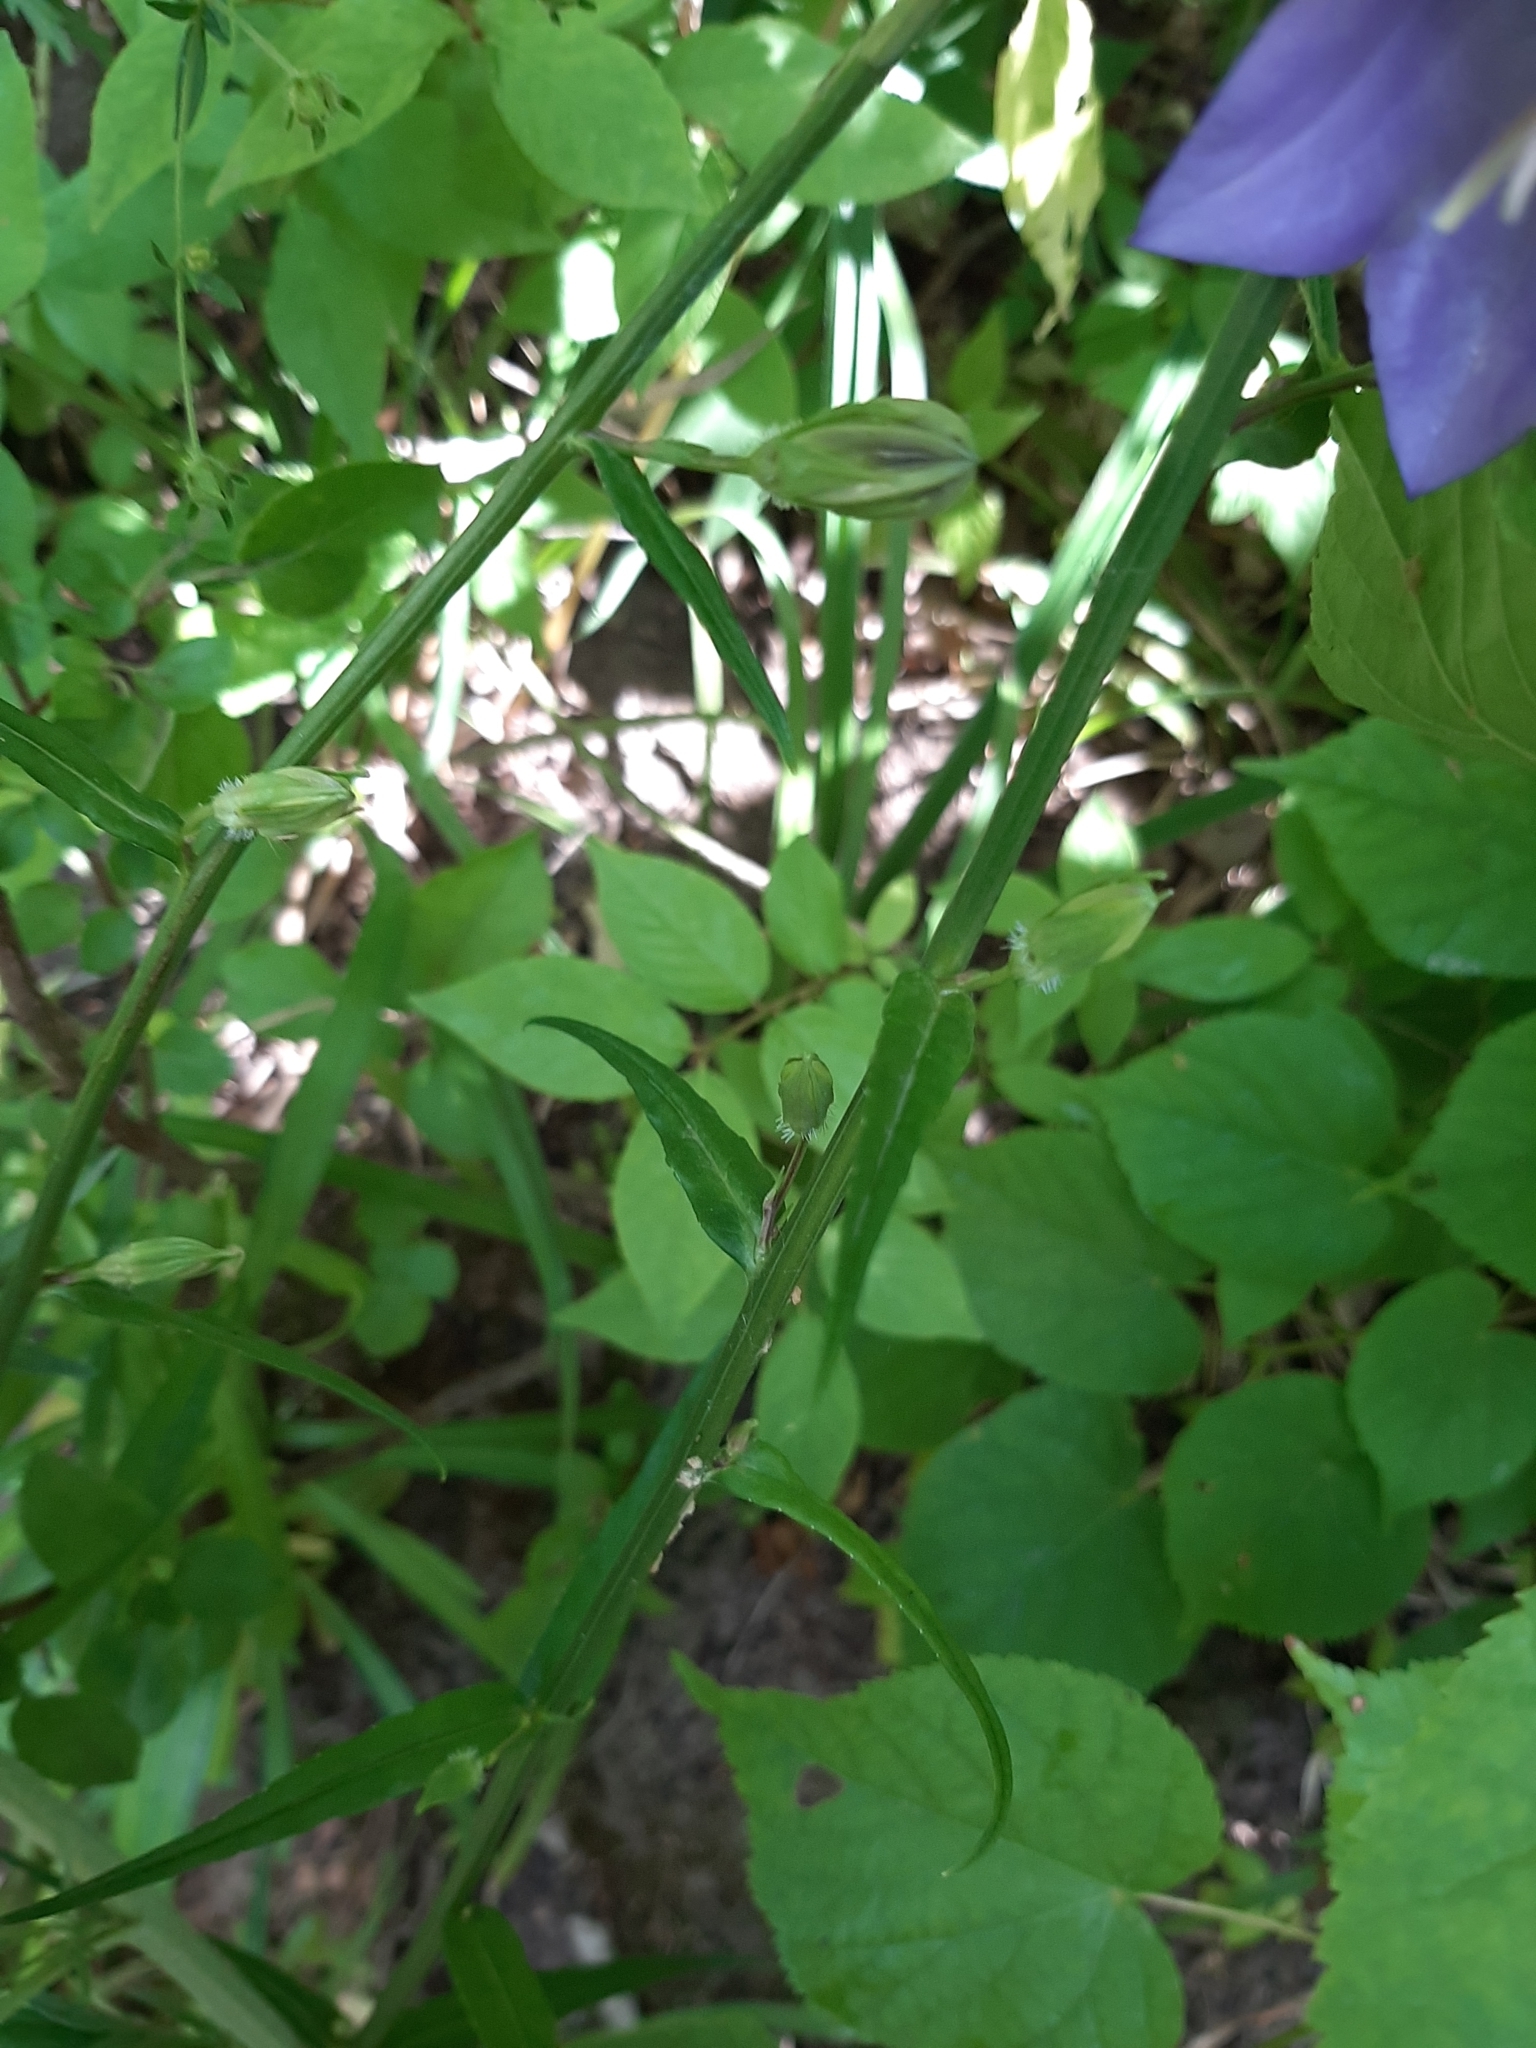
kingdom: Plantae
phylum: Tracheophyta
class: Magnoliopsida
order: Asterales
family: Campanulaceae
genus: Campanula
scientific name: Campanula persicifolia
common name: Peach-leaved bellflower
